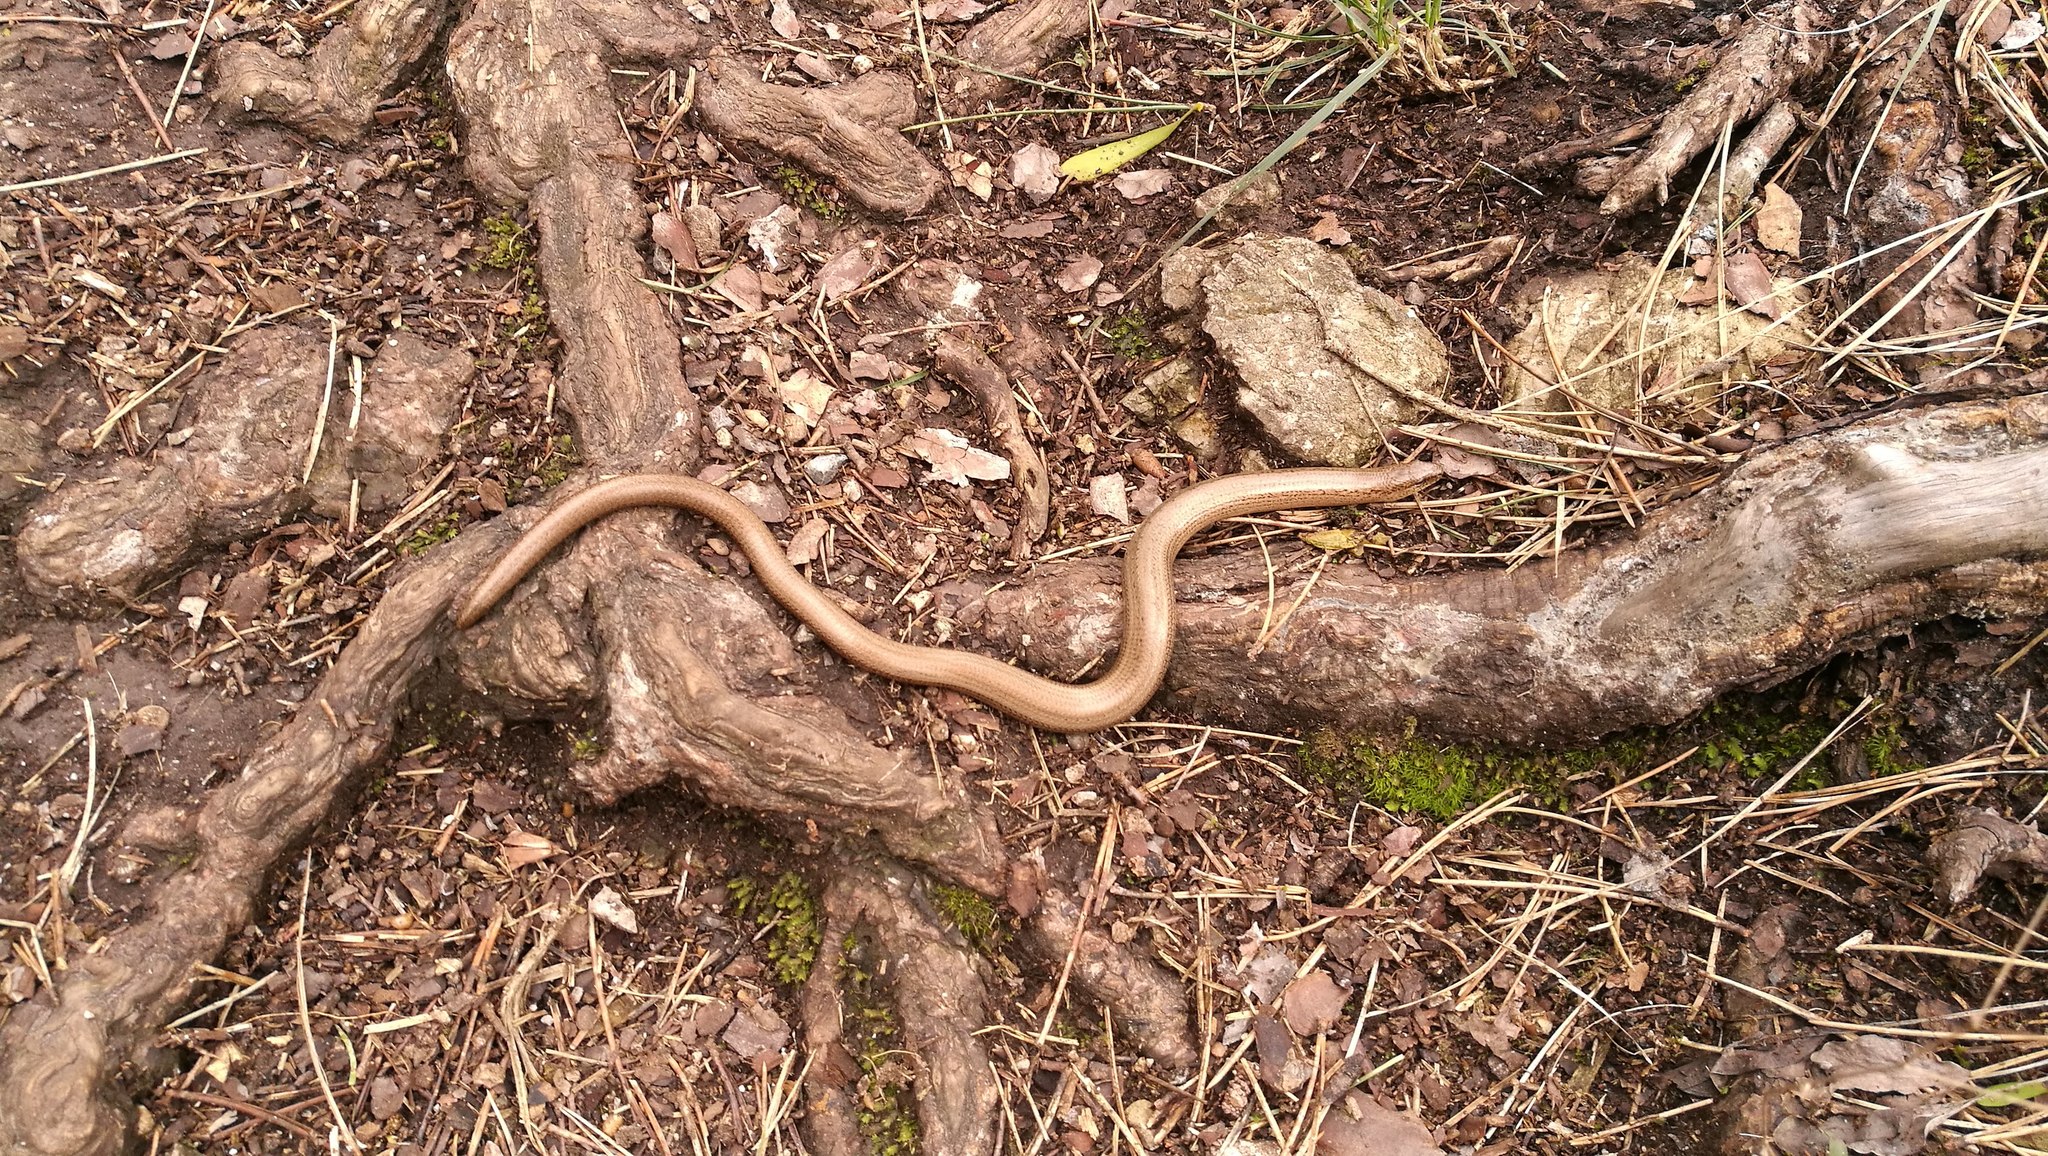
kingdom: Animalia
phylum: Chordata
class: Squamata
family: Anguidae
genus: Anguis
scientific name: Anguis fragilis
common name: Slow worm
